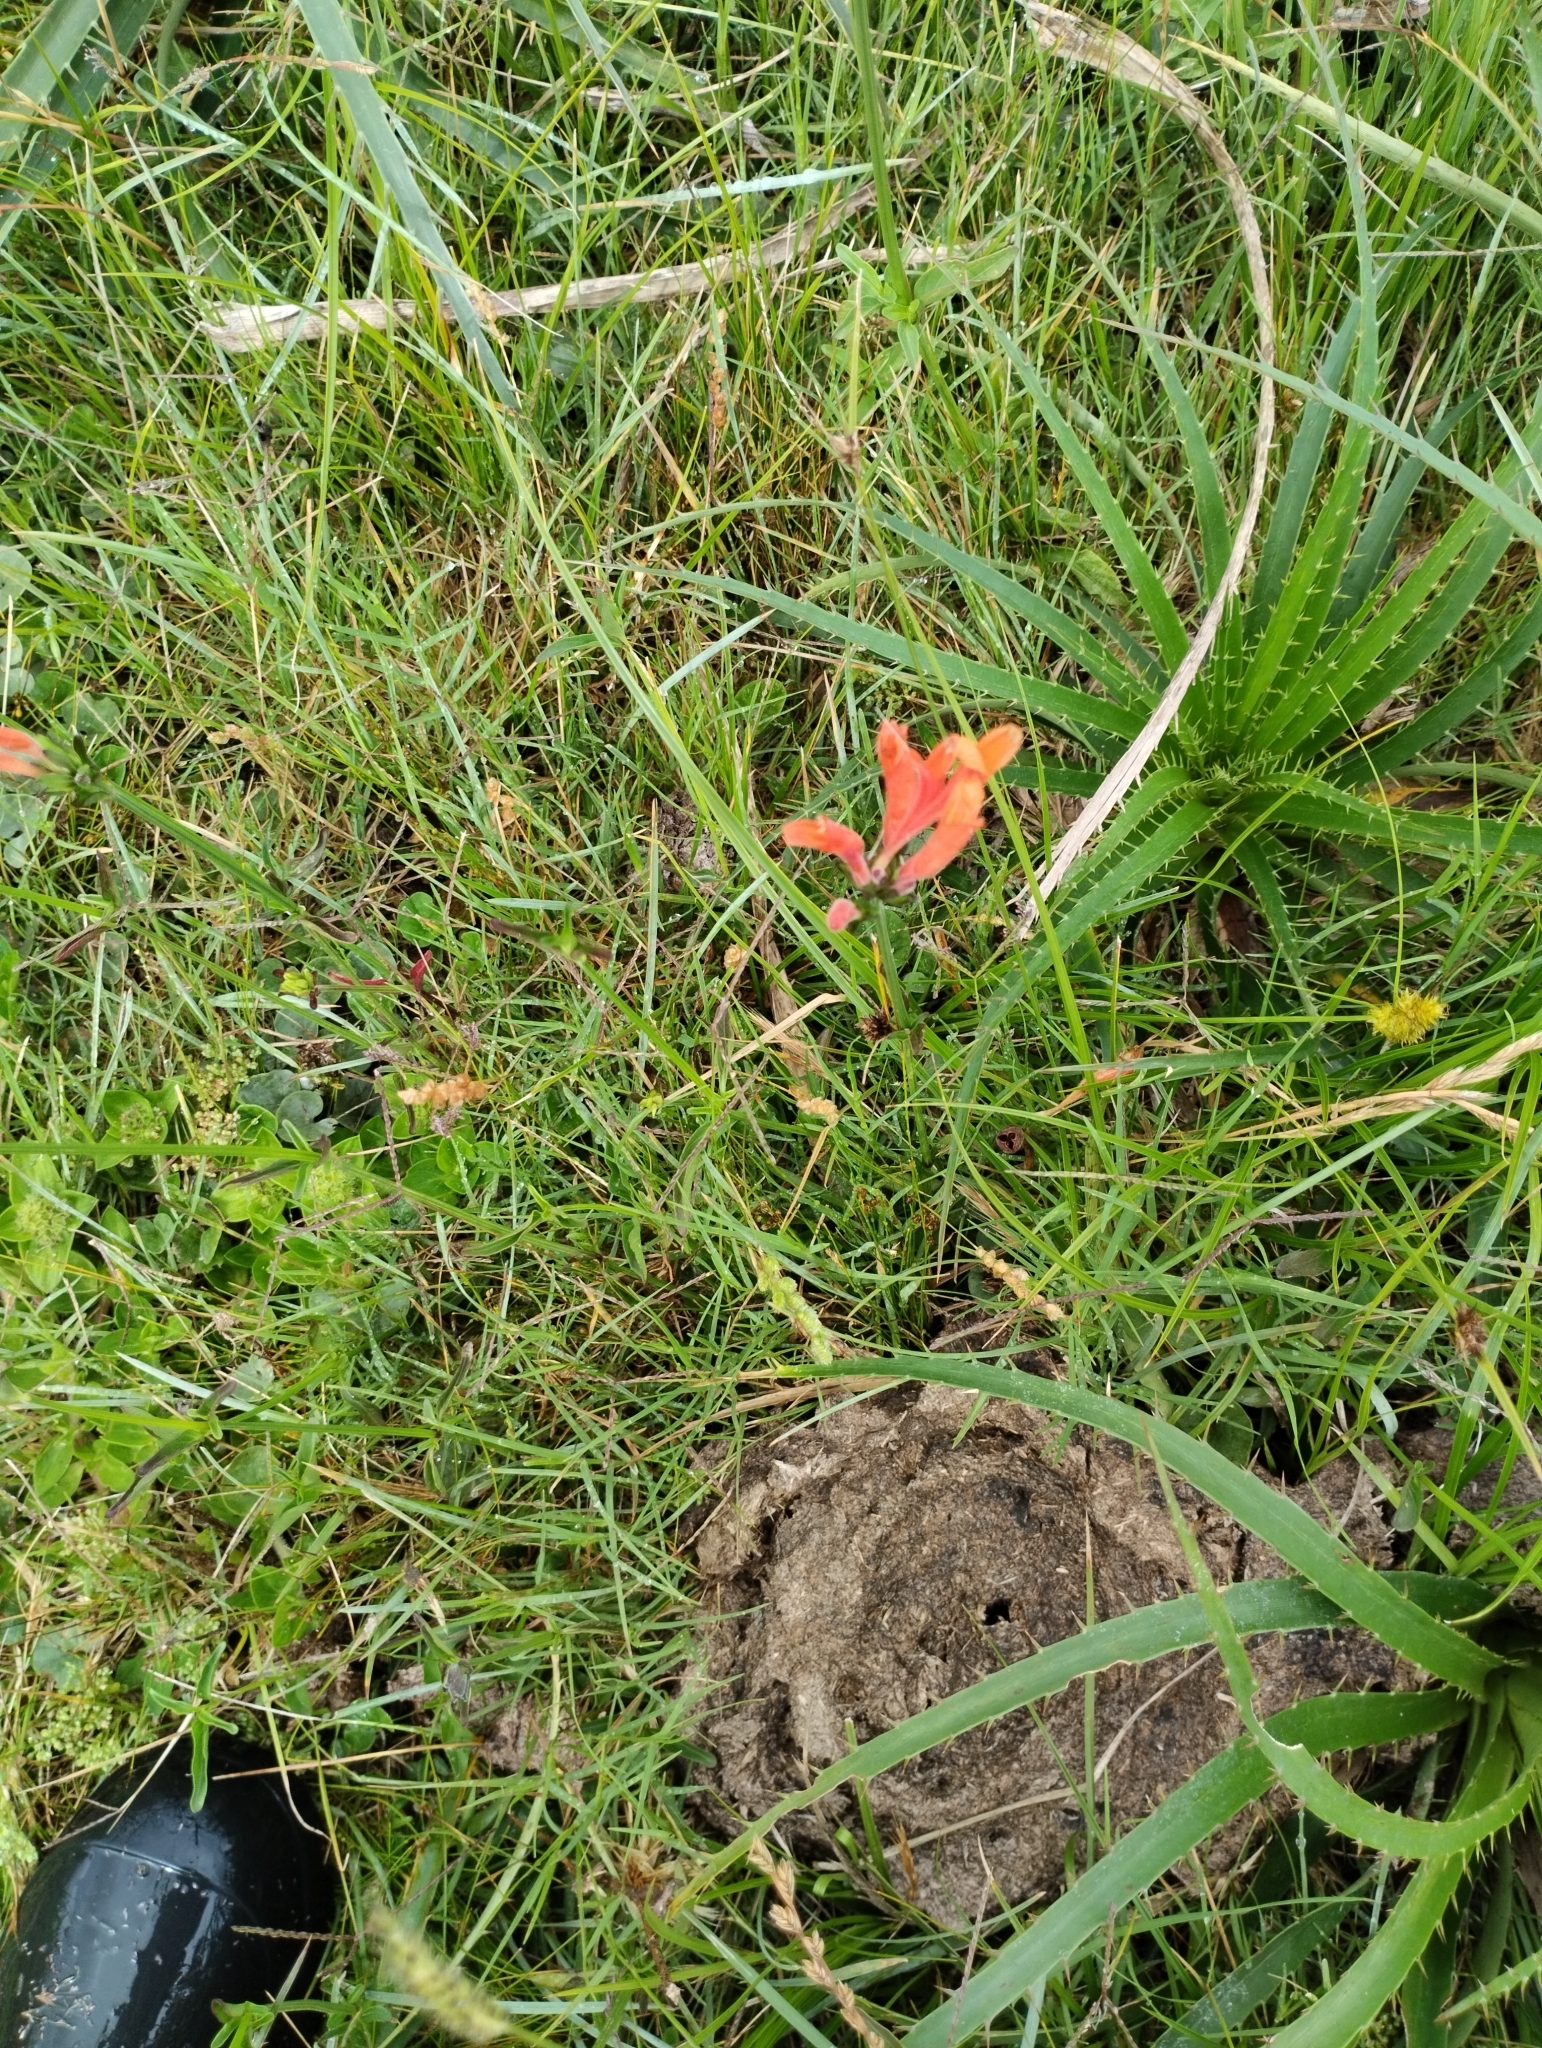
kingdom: Plantae
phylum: Tracheophyta
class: Magnoliopsida
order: Lamiales
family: Acanthaceae
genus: Dicliptera
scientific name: Dicliptera squarrosa
